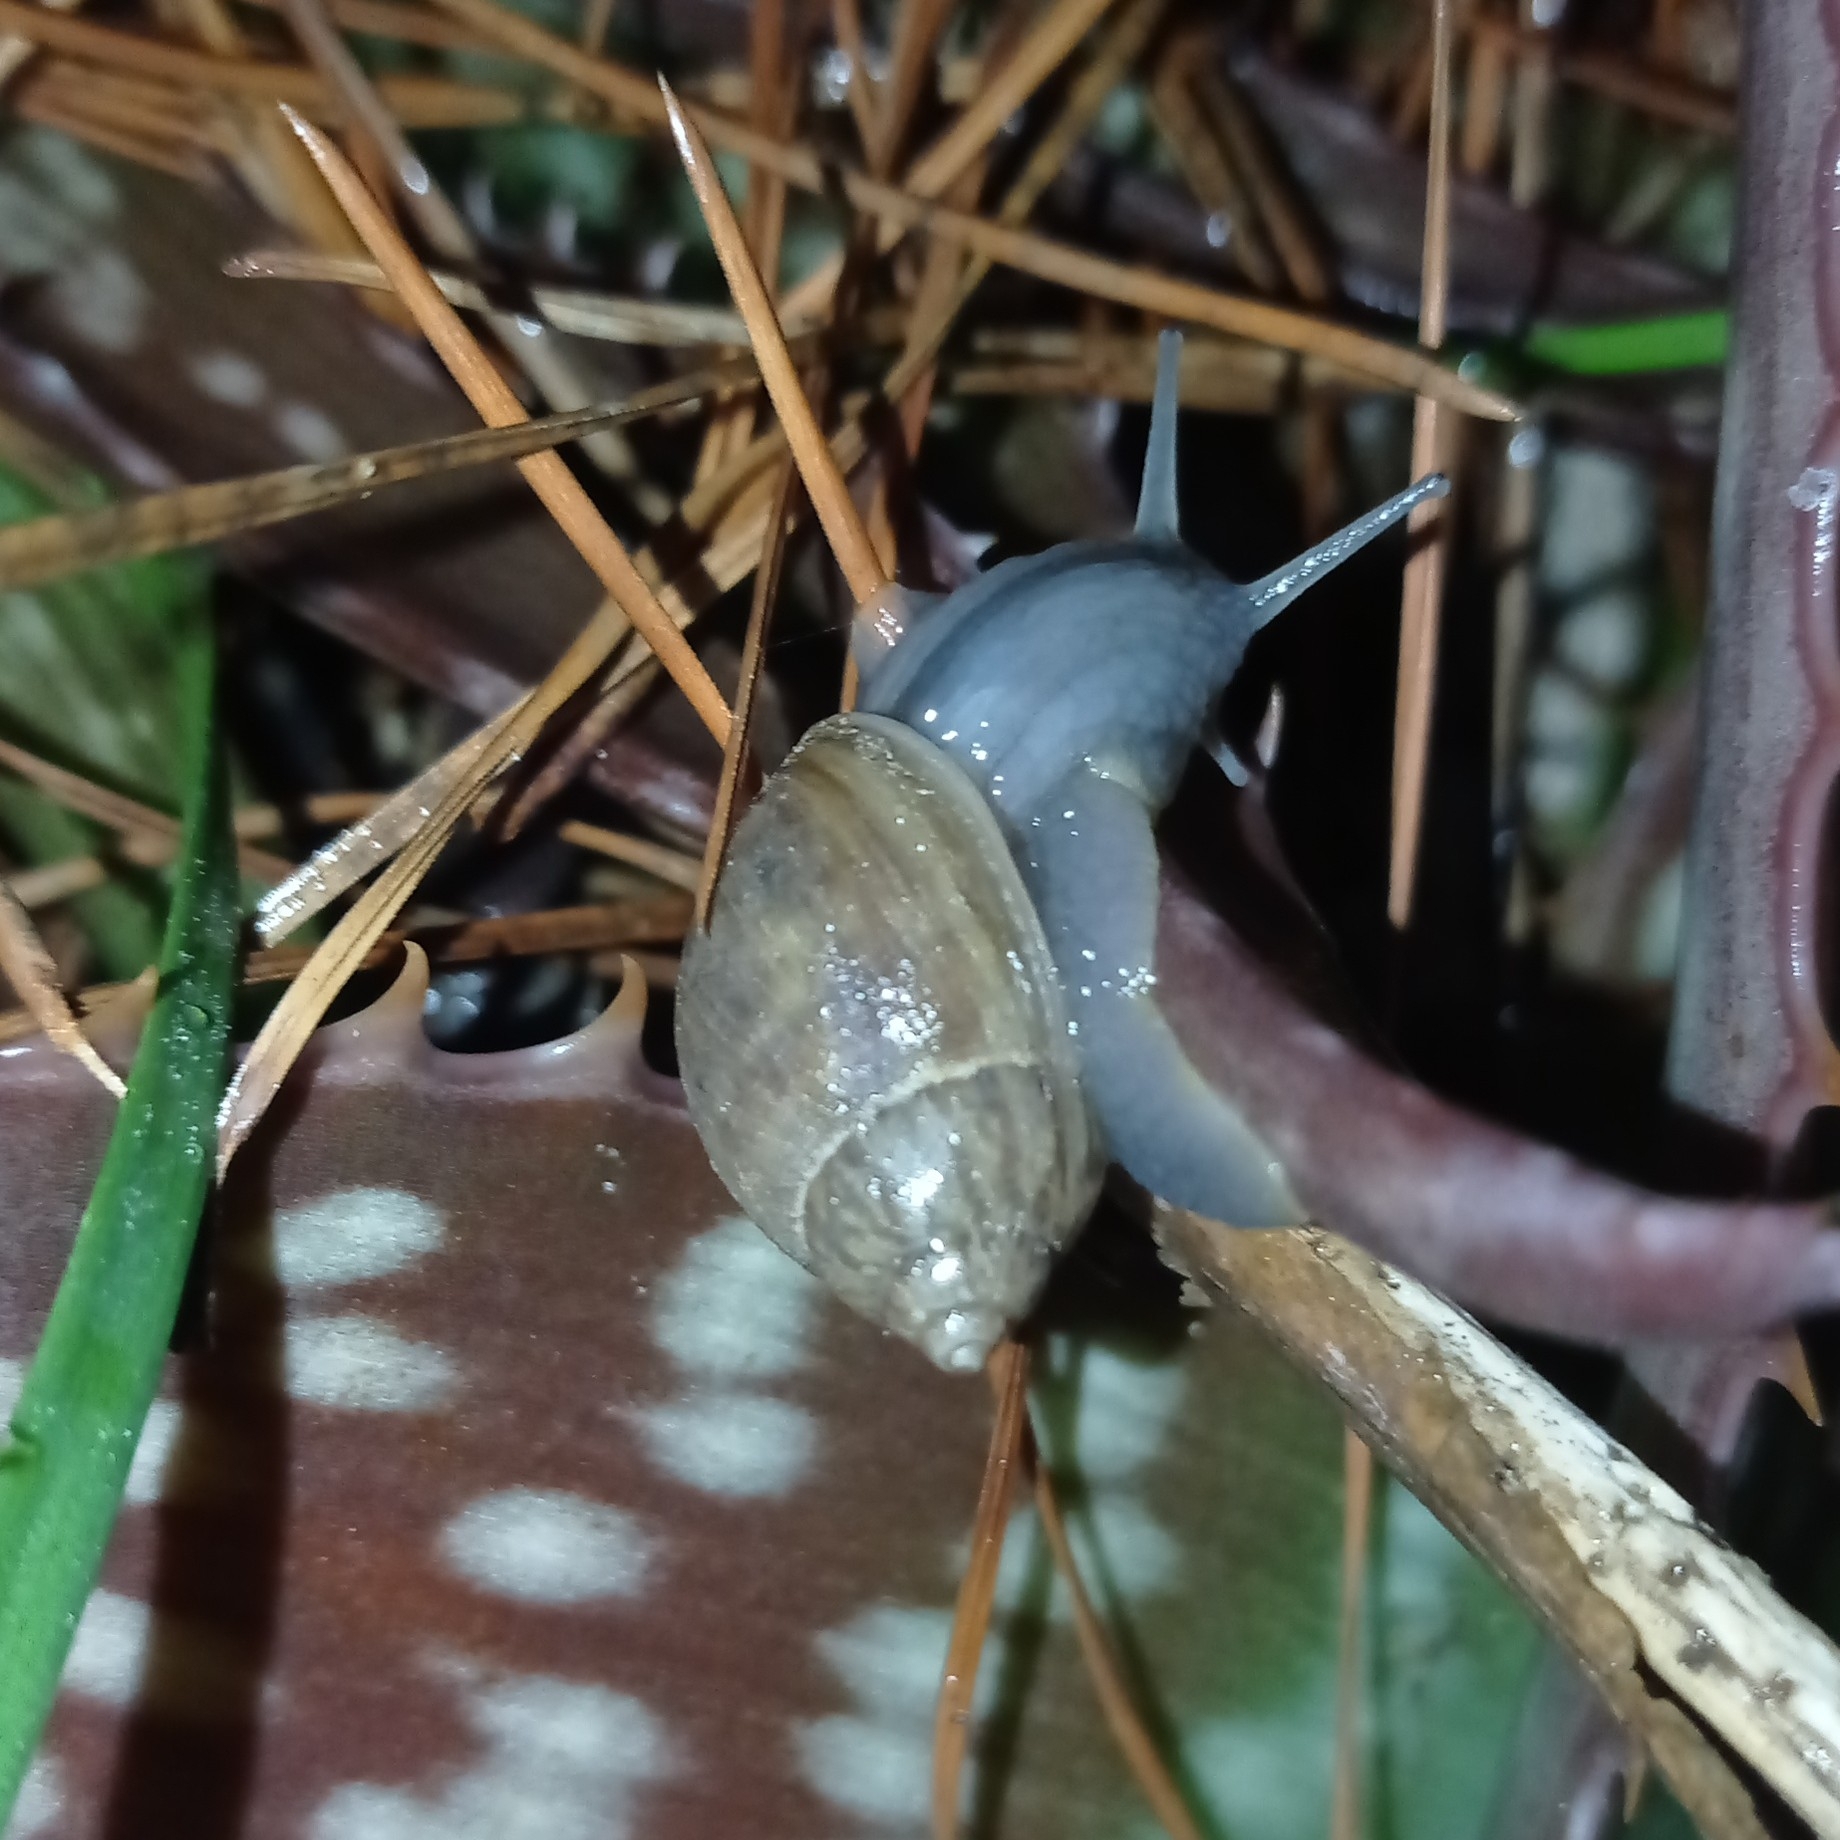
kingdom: Animalia
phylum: Mollusca
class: Gastropoda
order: Stylommatophora
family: Bothriembryontidae
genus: Plectostylus
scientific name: Plectostylus chilensis
